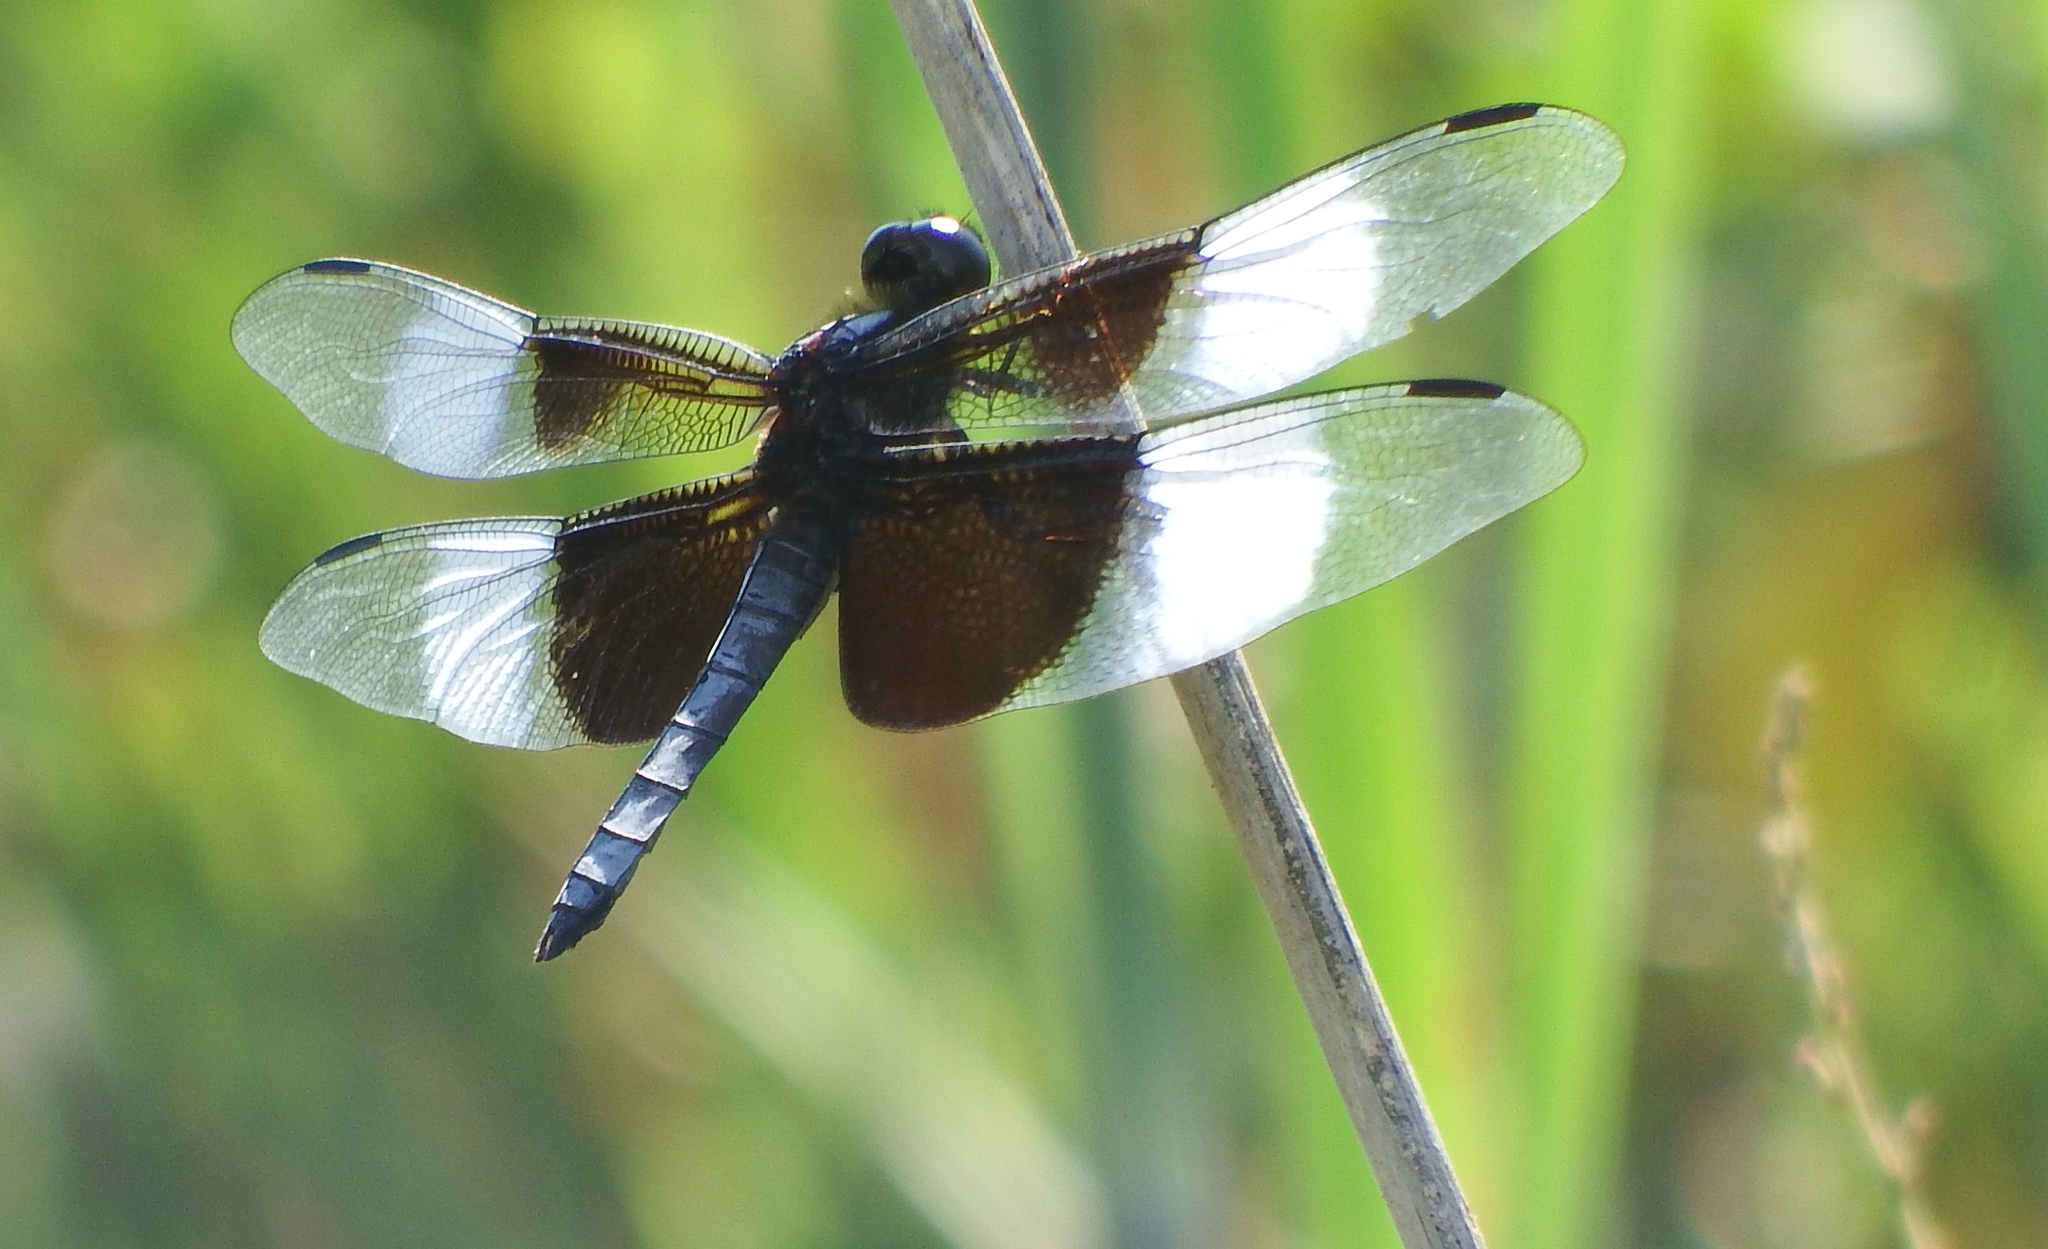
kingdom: Animalia
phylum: Arthropoda
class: Insecta
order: Odonata
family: Libellulidae
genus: Libellula
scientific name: Libellula luctuosa
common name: Widow skimmer
